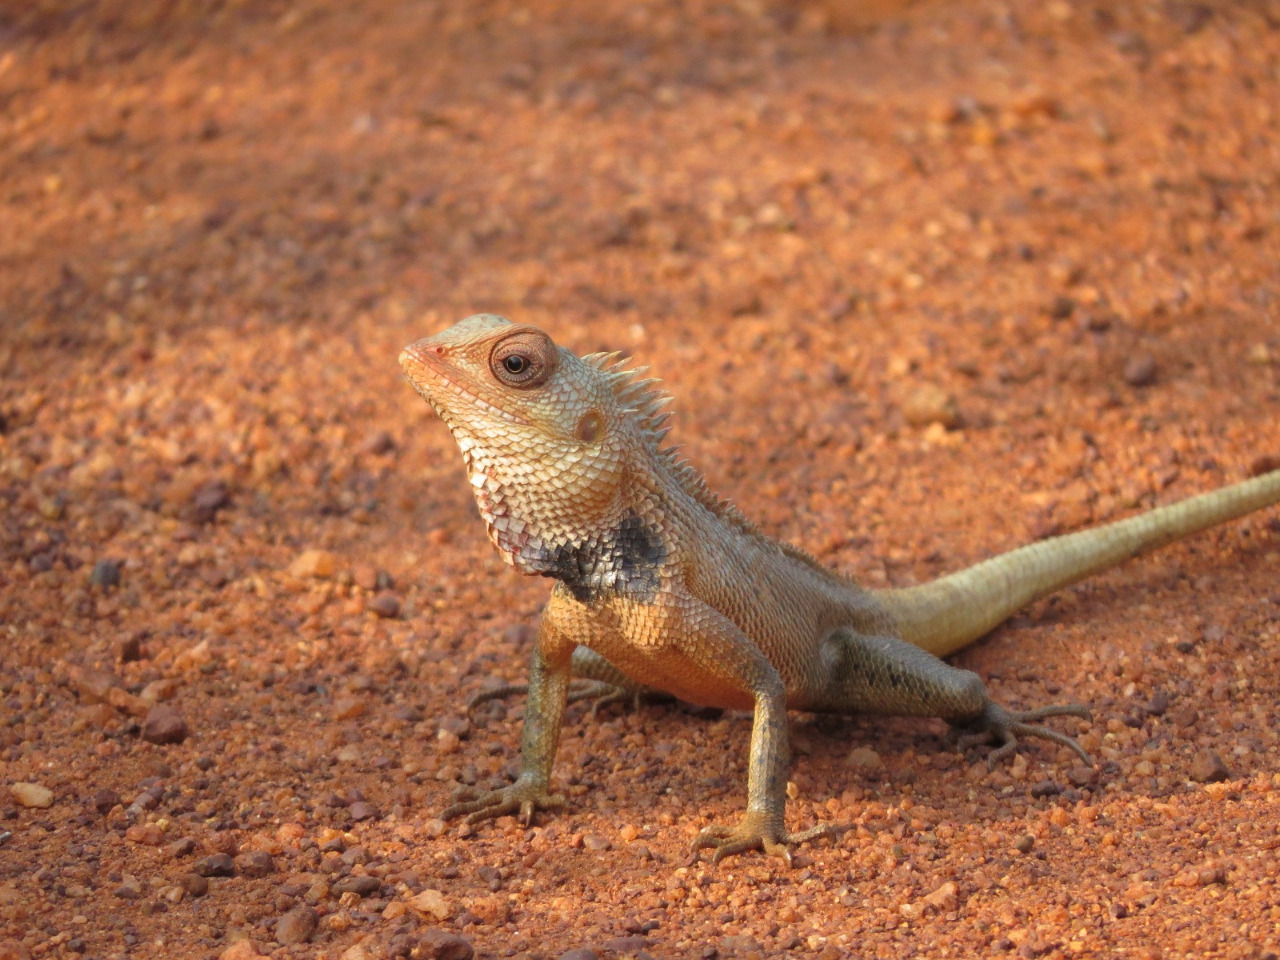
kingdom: Animalia
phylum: Chordata
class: Squamata
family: Agamidae
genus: Calotes
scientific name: Calotes versicolor
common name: Oriental garden lizard
